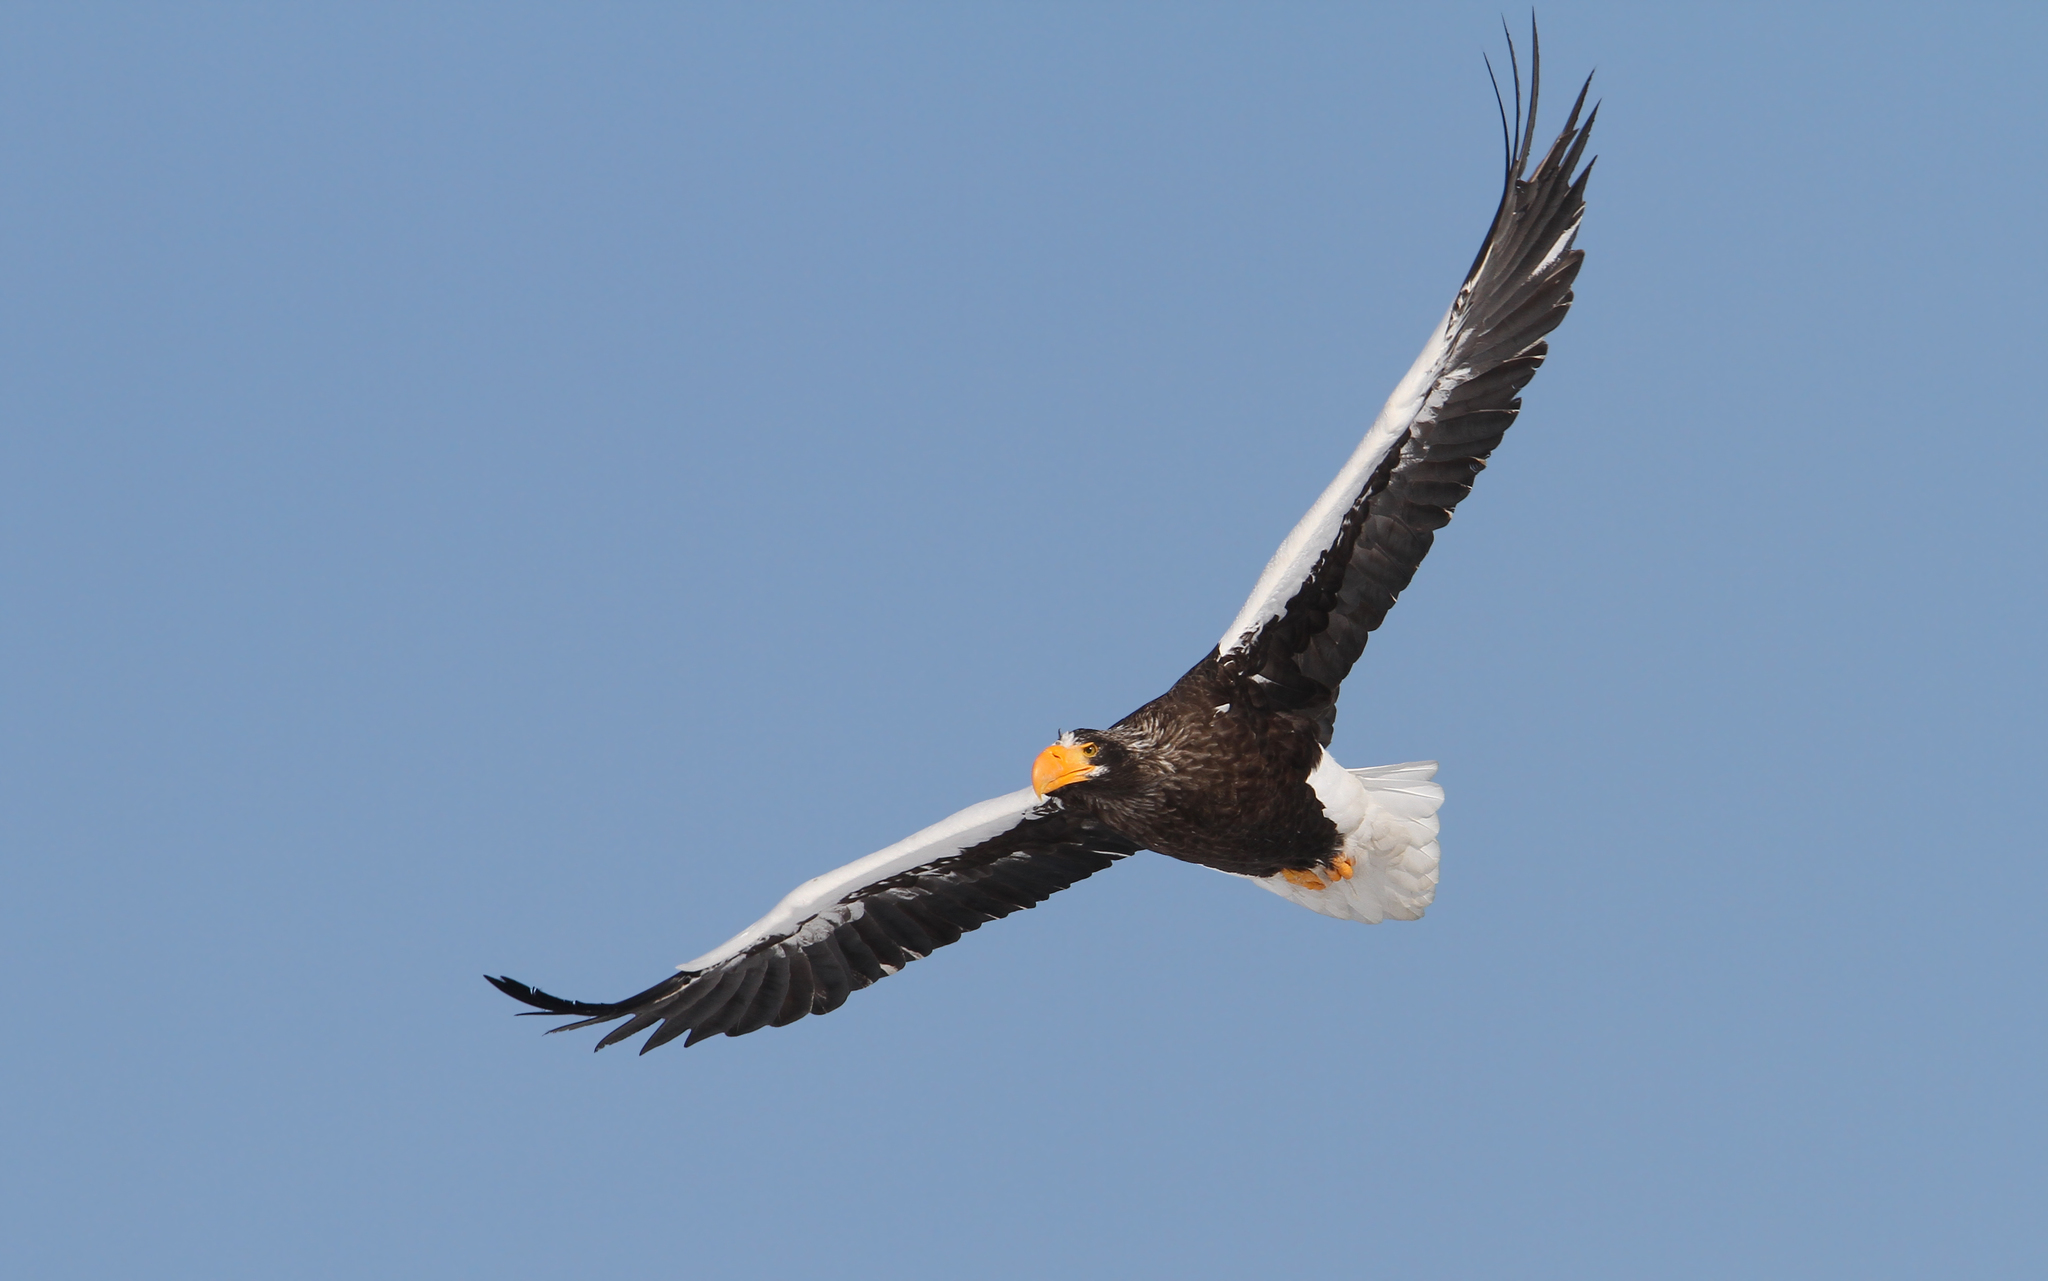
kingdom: Animalia
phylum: Chordata
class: Aves
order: Accipitriformes
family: Accipitridae
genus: Haliaeetus
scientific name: Haliaeetus pelagicus
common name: Steller's sea eagle
